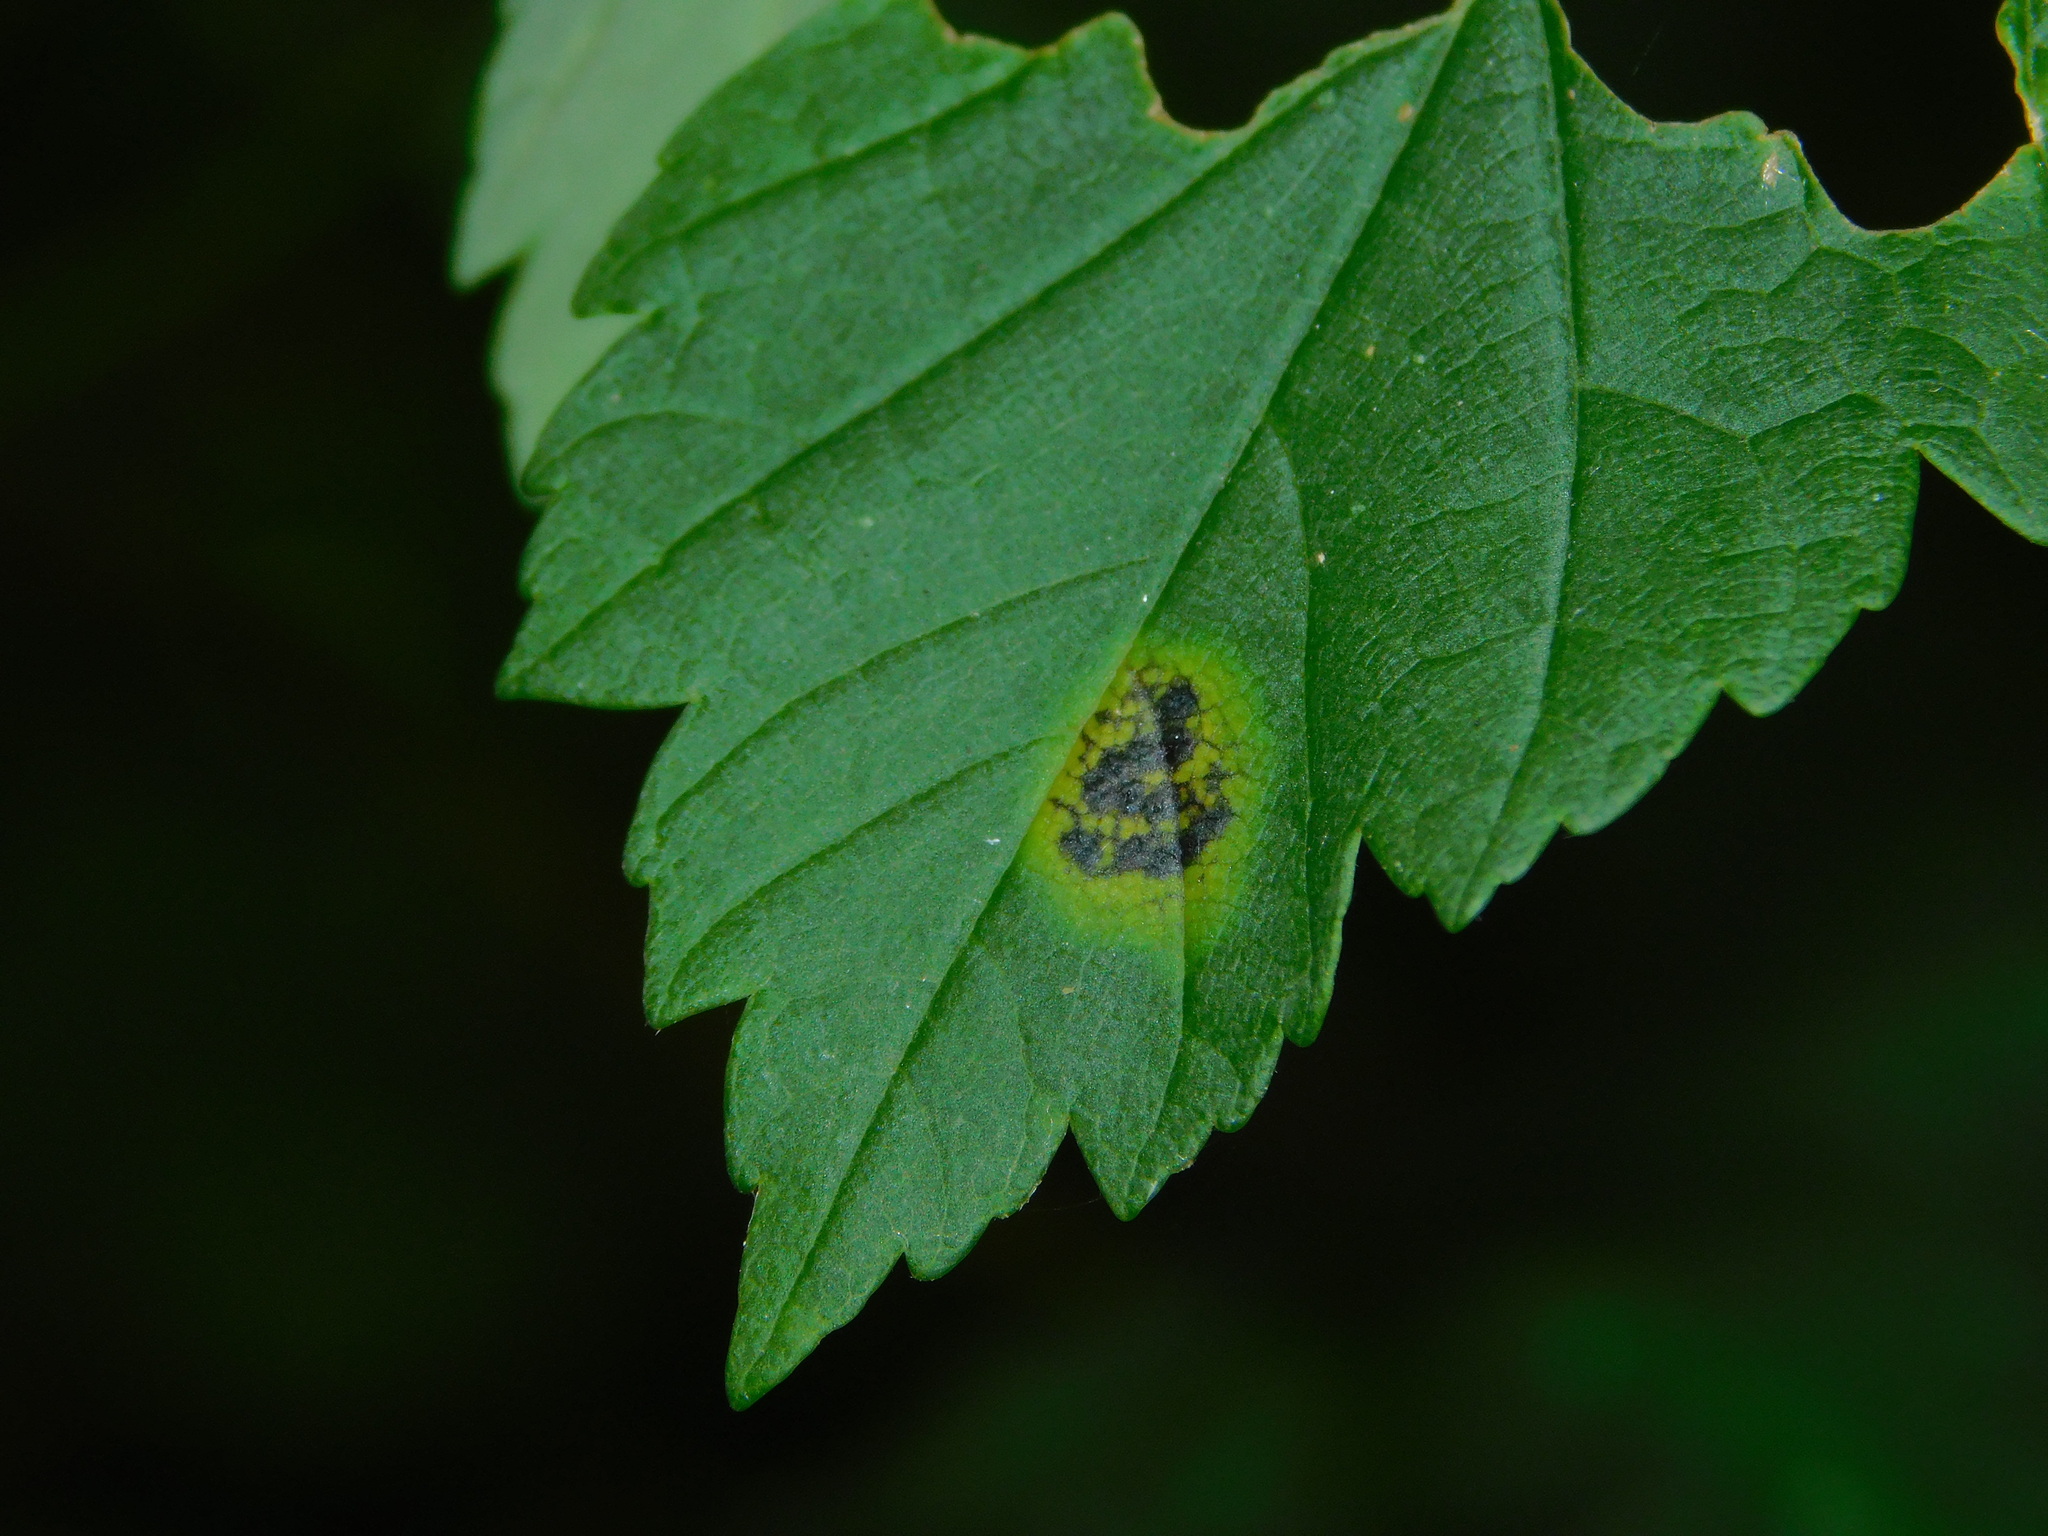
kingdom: Fungi
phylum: Ascomycota
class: Leotiomycetes
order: Rhytismatales
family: Rhytismataceae
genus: Rhytisma
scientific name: Rhytisma acerinum
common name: European tar spot
